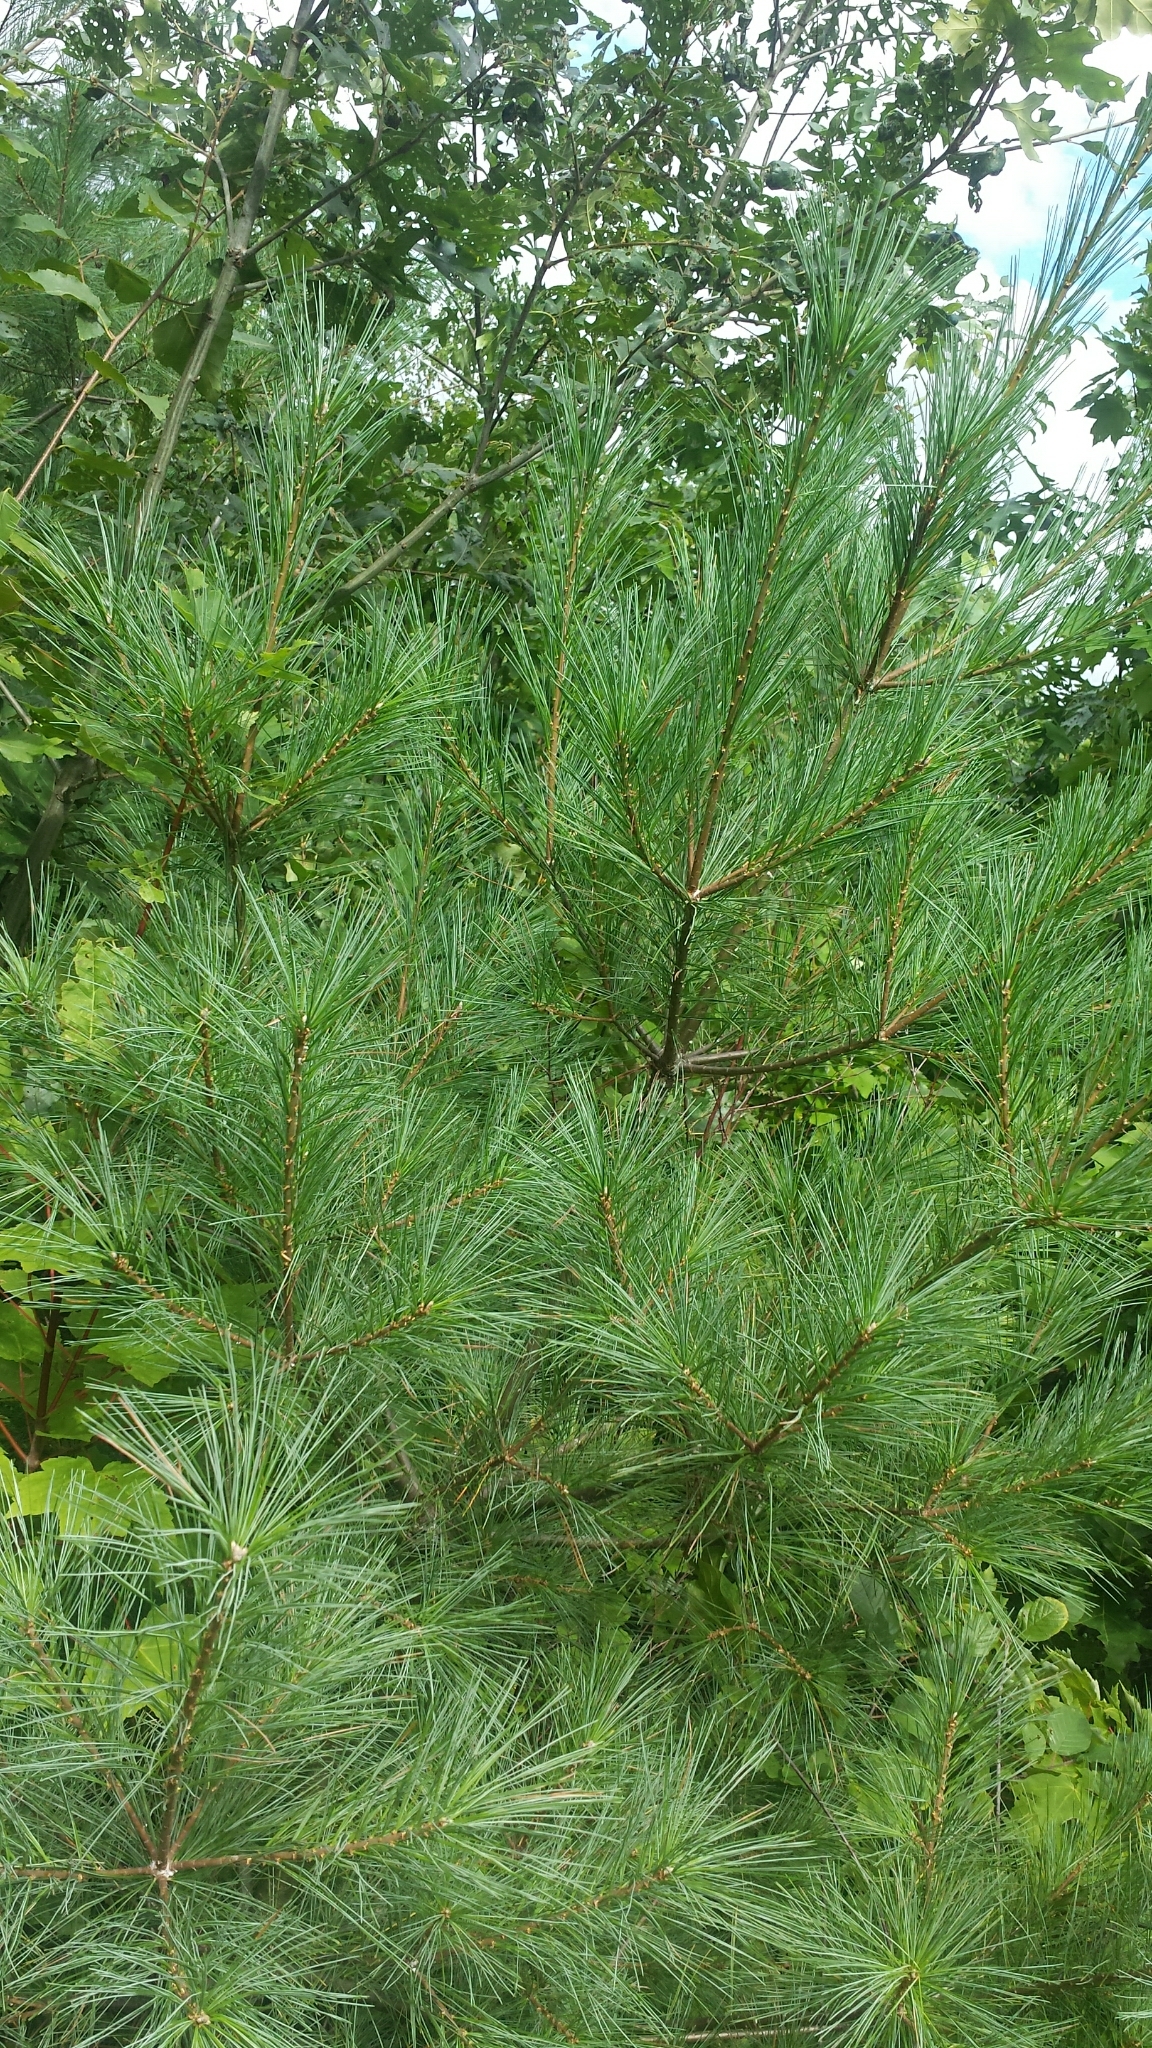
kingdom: Plantae
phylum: Tracheophyta
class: Pinopsida
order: Pinales
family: Pinaceae
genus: Pinus
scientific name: Pinus strobus
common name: Weymouth pine
